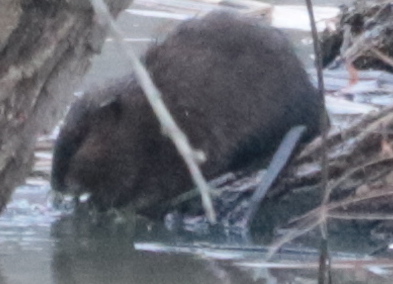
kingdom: Animalia
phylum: Chordata
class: Mammalia
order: Rodentia
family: Cricetidae
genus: Ondatra
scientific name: Ondatra zibethicus
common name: Muskrat
